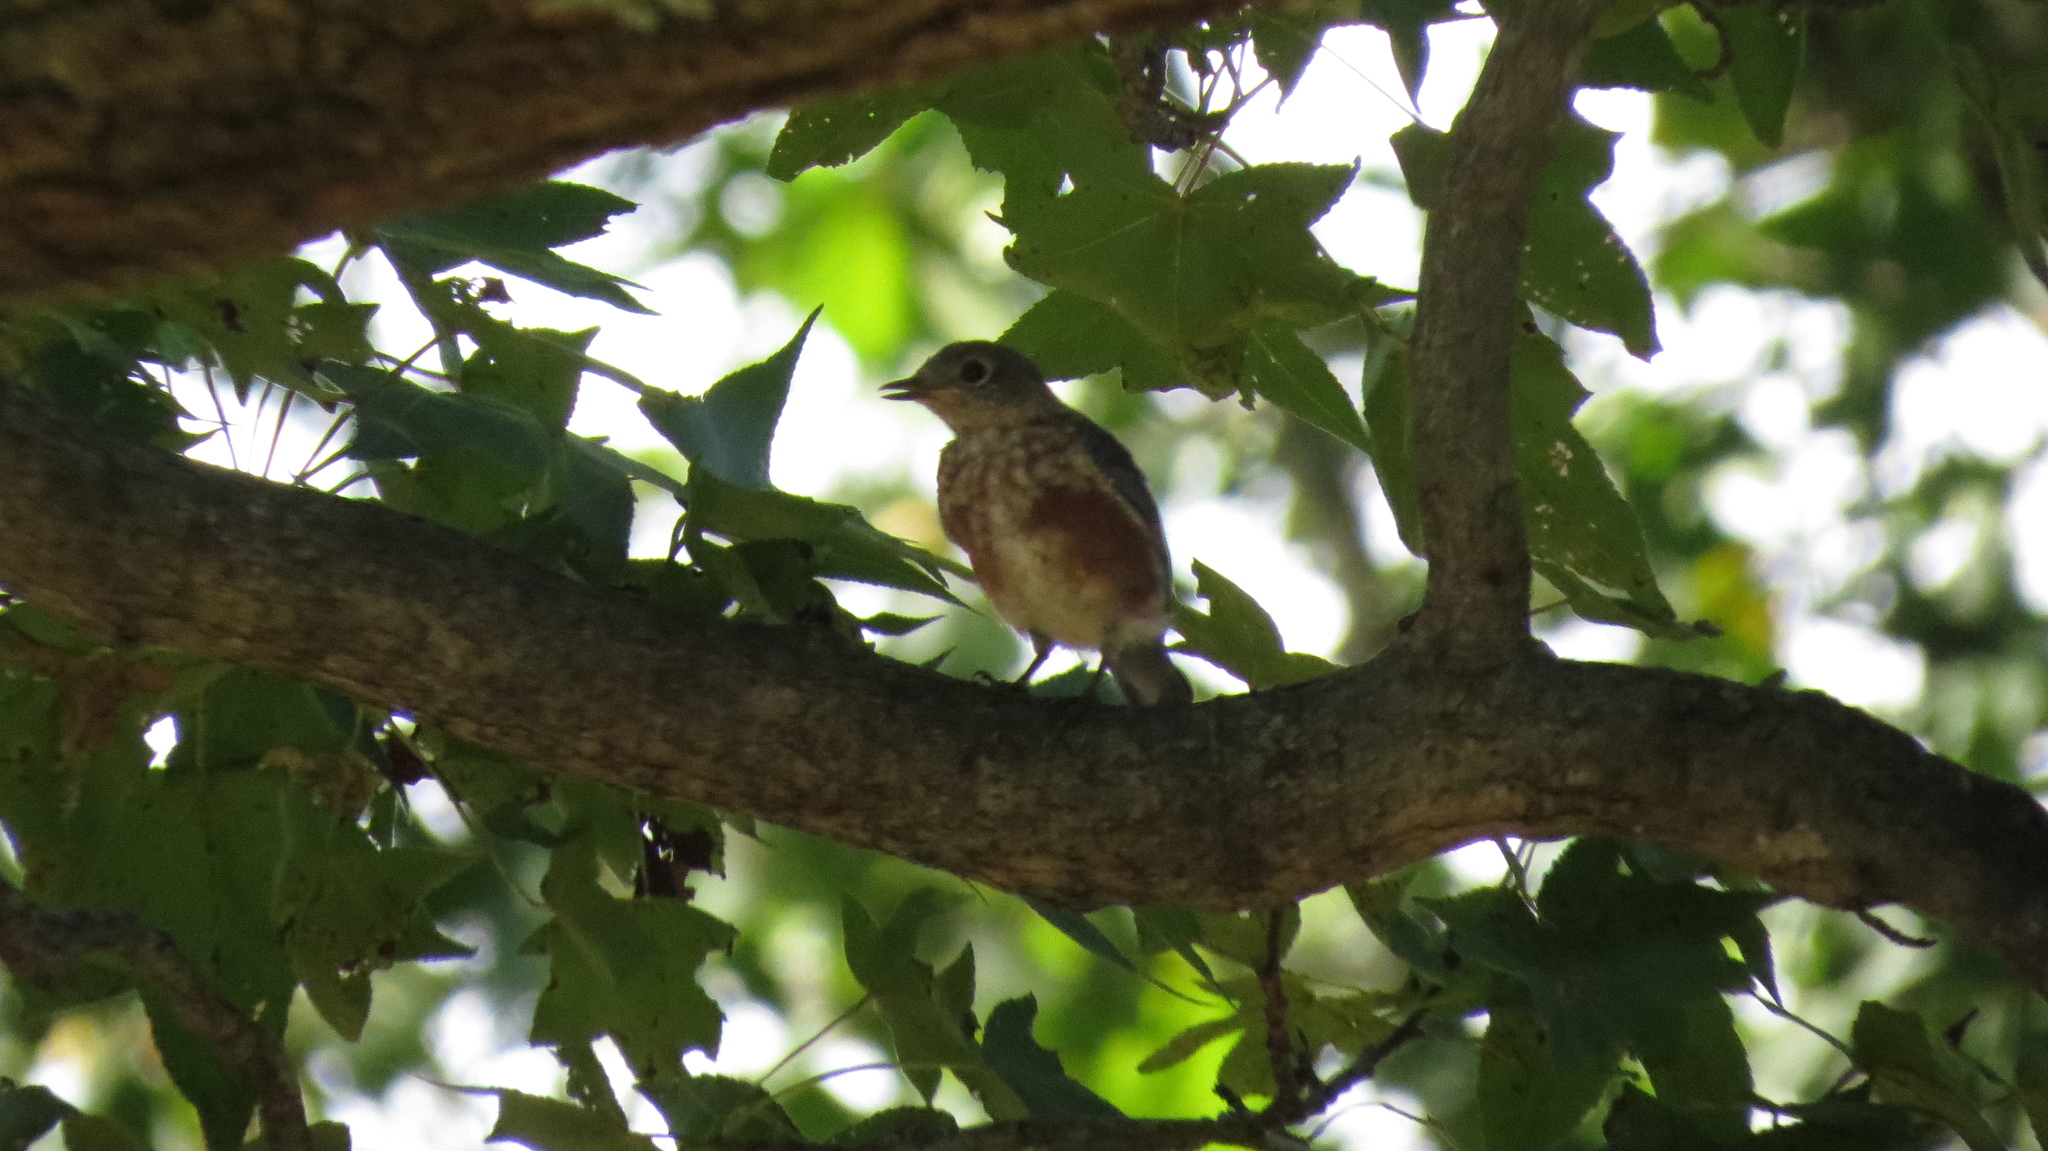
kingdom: Animalia
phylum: Chordata
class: Aves
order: Passeriformes
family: Turdidae
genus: Sialia
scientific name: Sialia sialis
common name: Eastern bluebird
